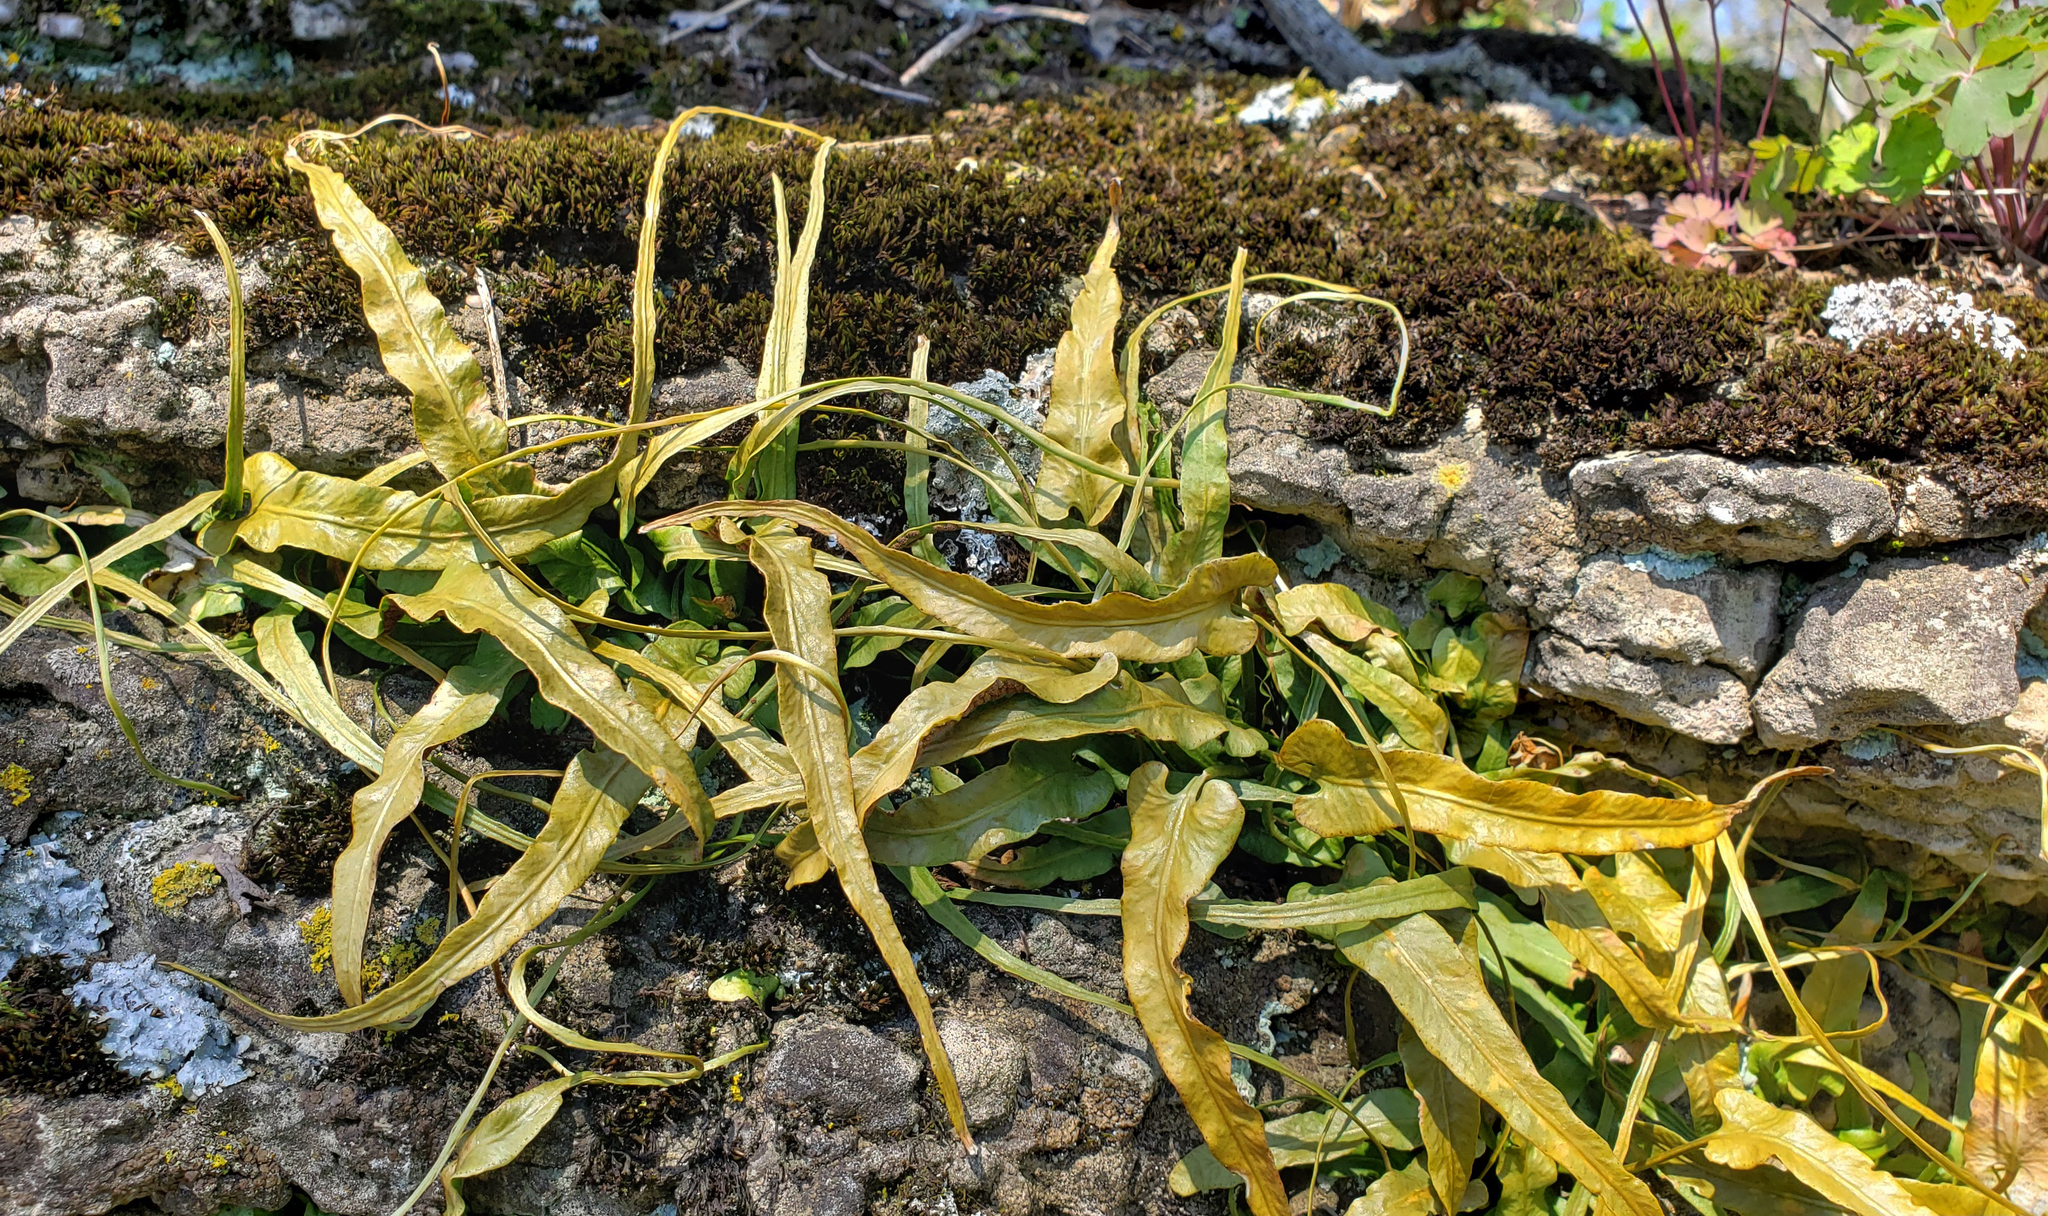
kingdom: Plantae
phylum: Tracheophyta
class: Polypodiopsida
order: Polypodiales
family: Aspleniaceae
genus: Asplenium
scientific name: Asplenium rhizophyllum
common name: Walking fern
